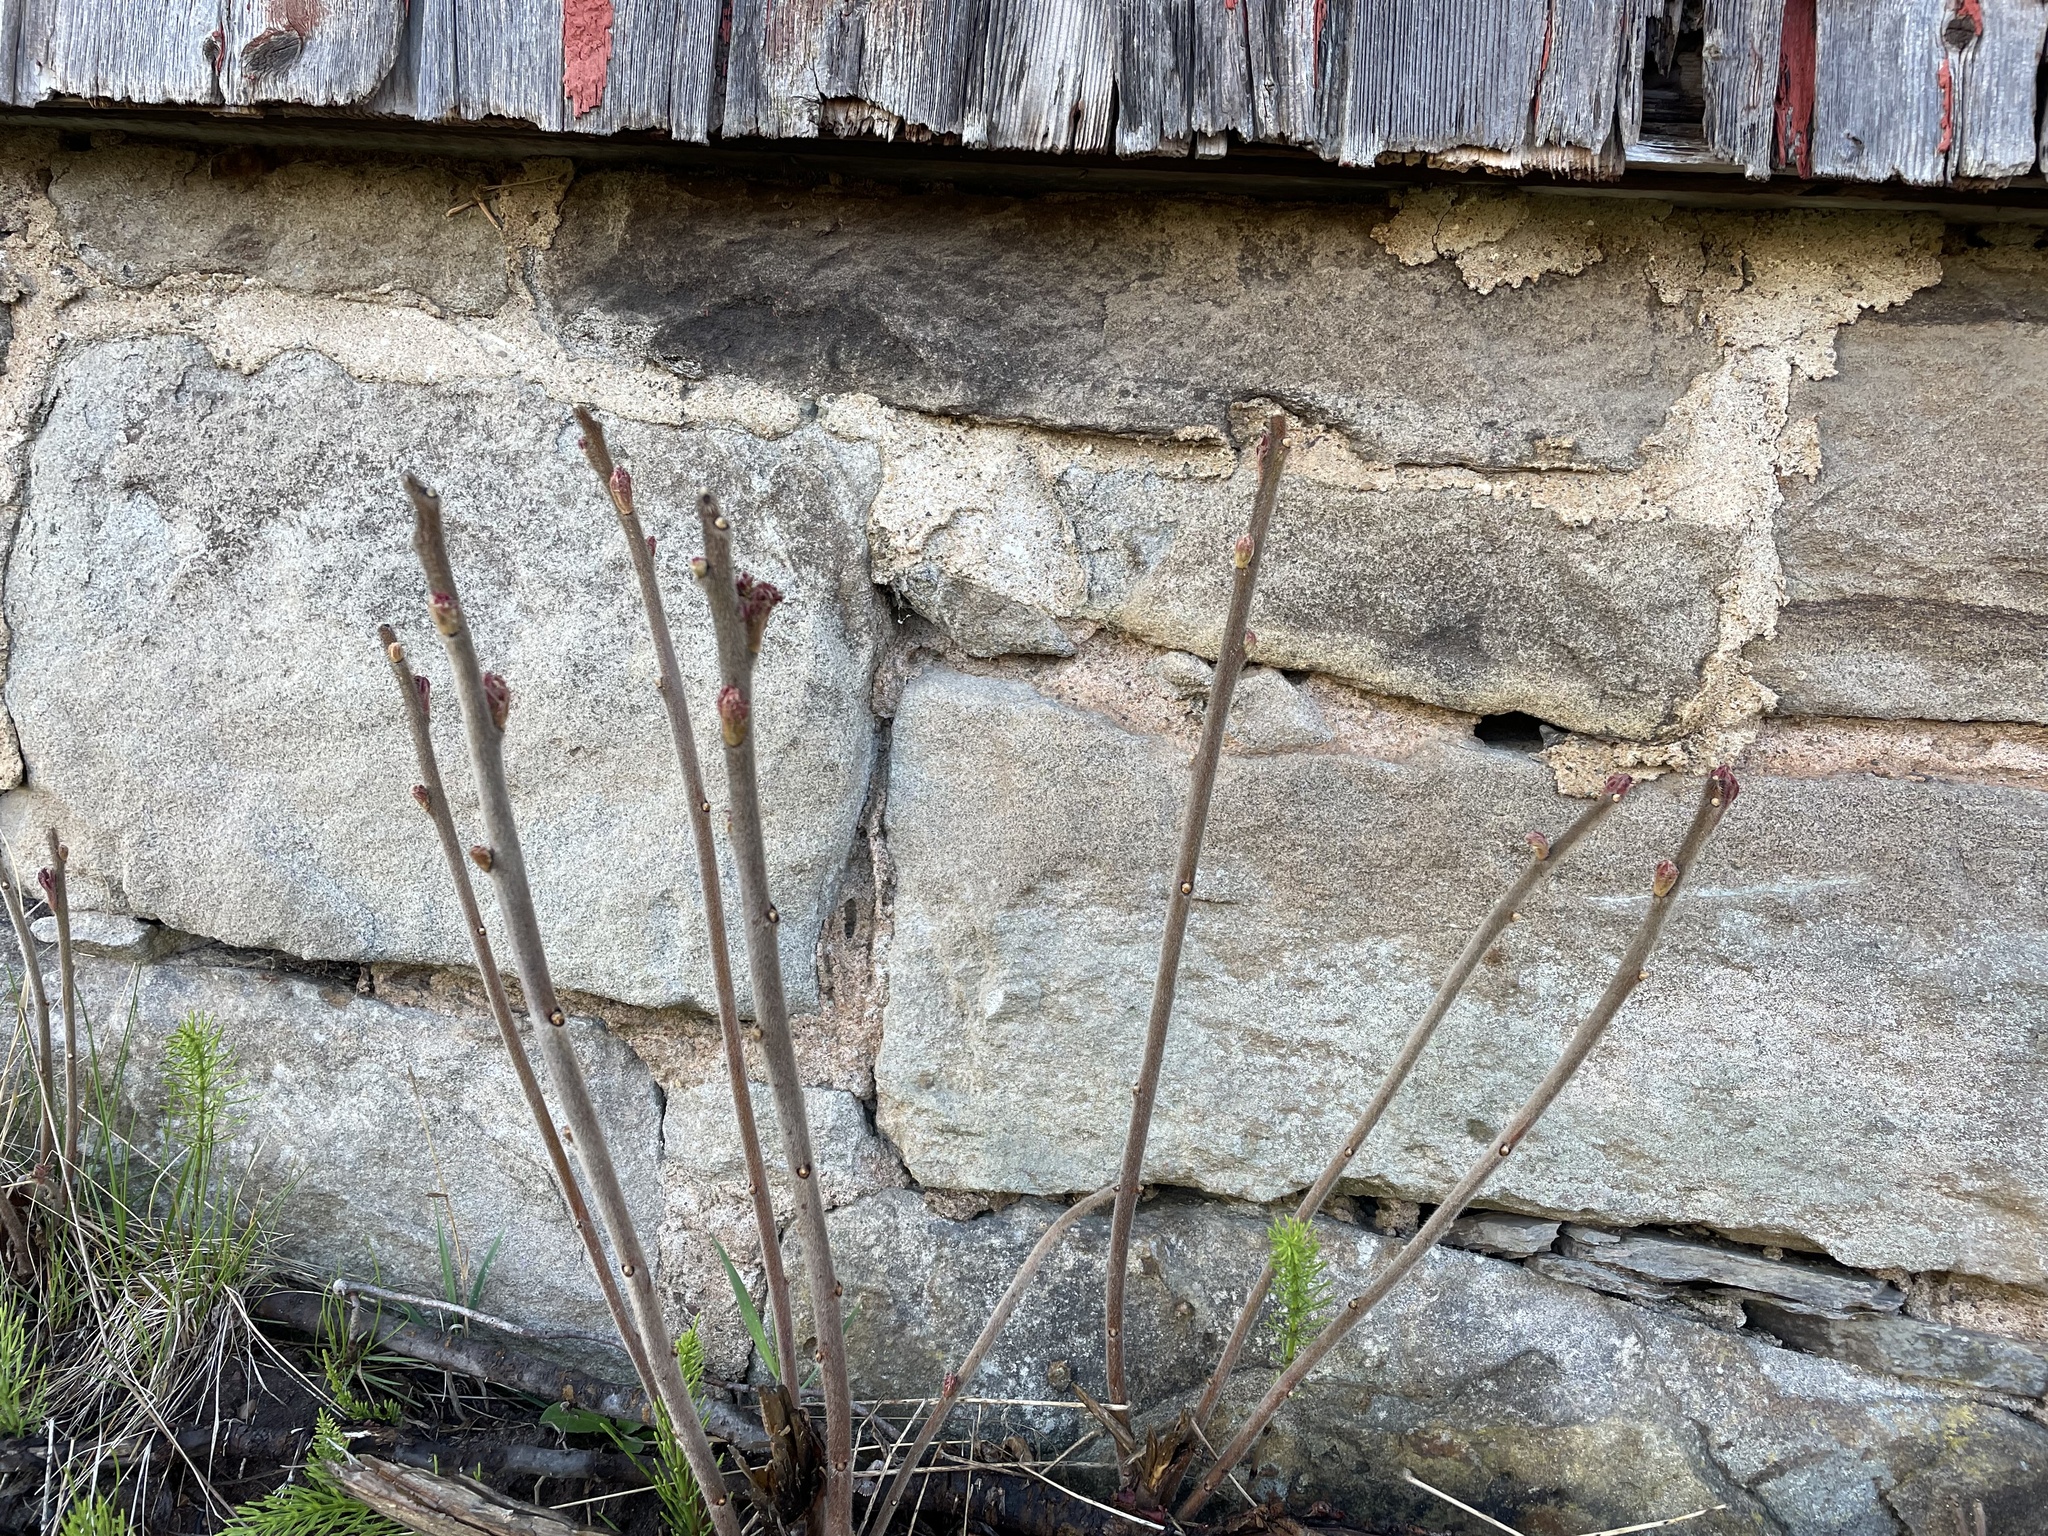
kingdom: Plantae
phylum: Tracheophyta
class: Magnoliopsida
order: Sapindales
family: Anacardiaceae
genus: Rhus
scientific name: Rhus typhina
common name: Staghorn sumac
